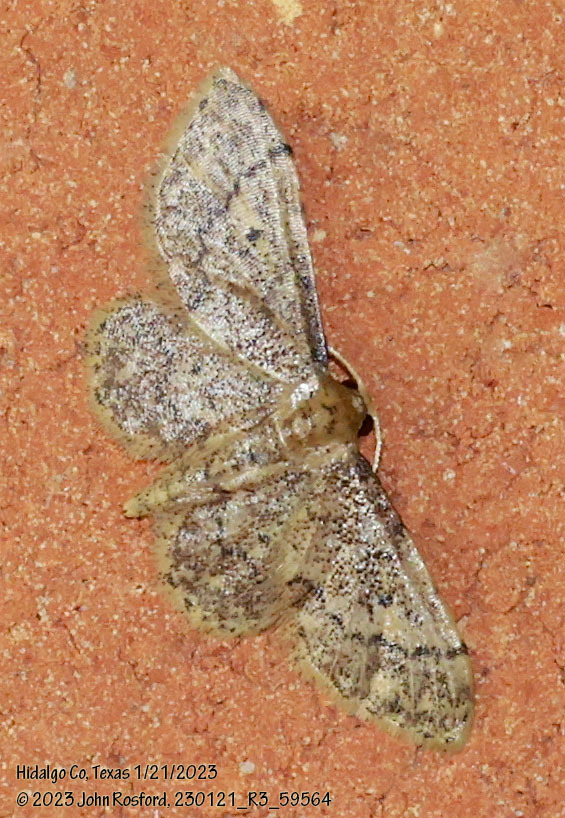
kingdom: Animalia
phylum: Arthropoda
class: Insecta
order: Lepidoptera
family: Geometridae
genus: Idaea
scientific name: Idaea celtima
